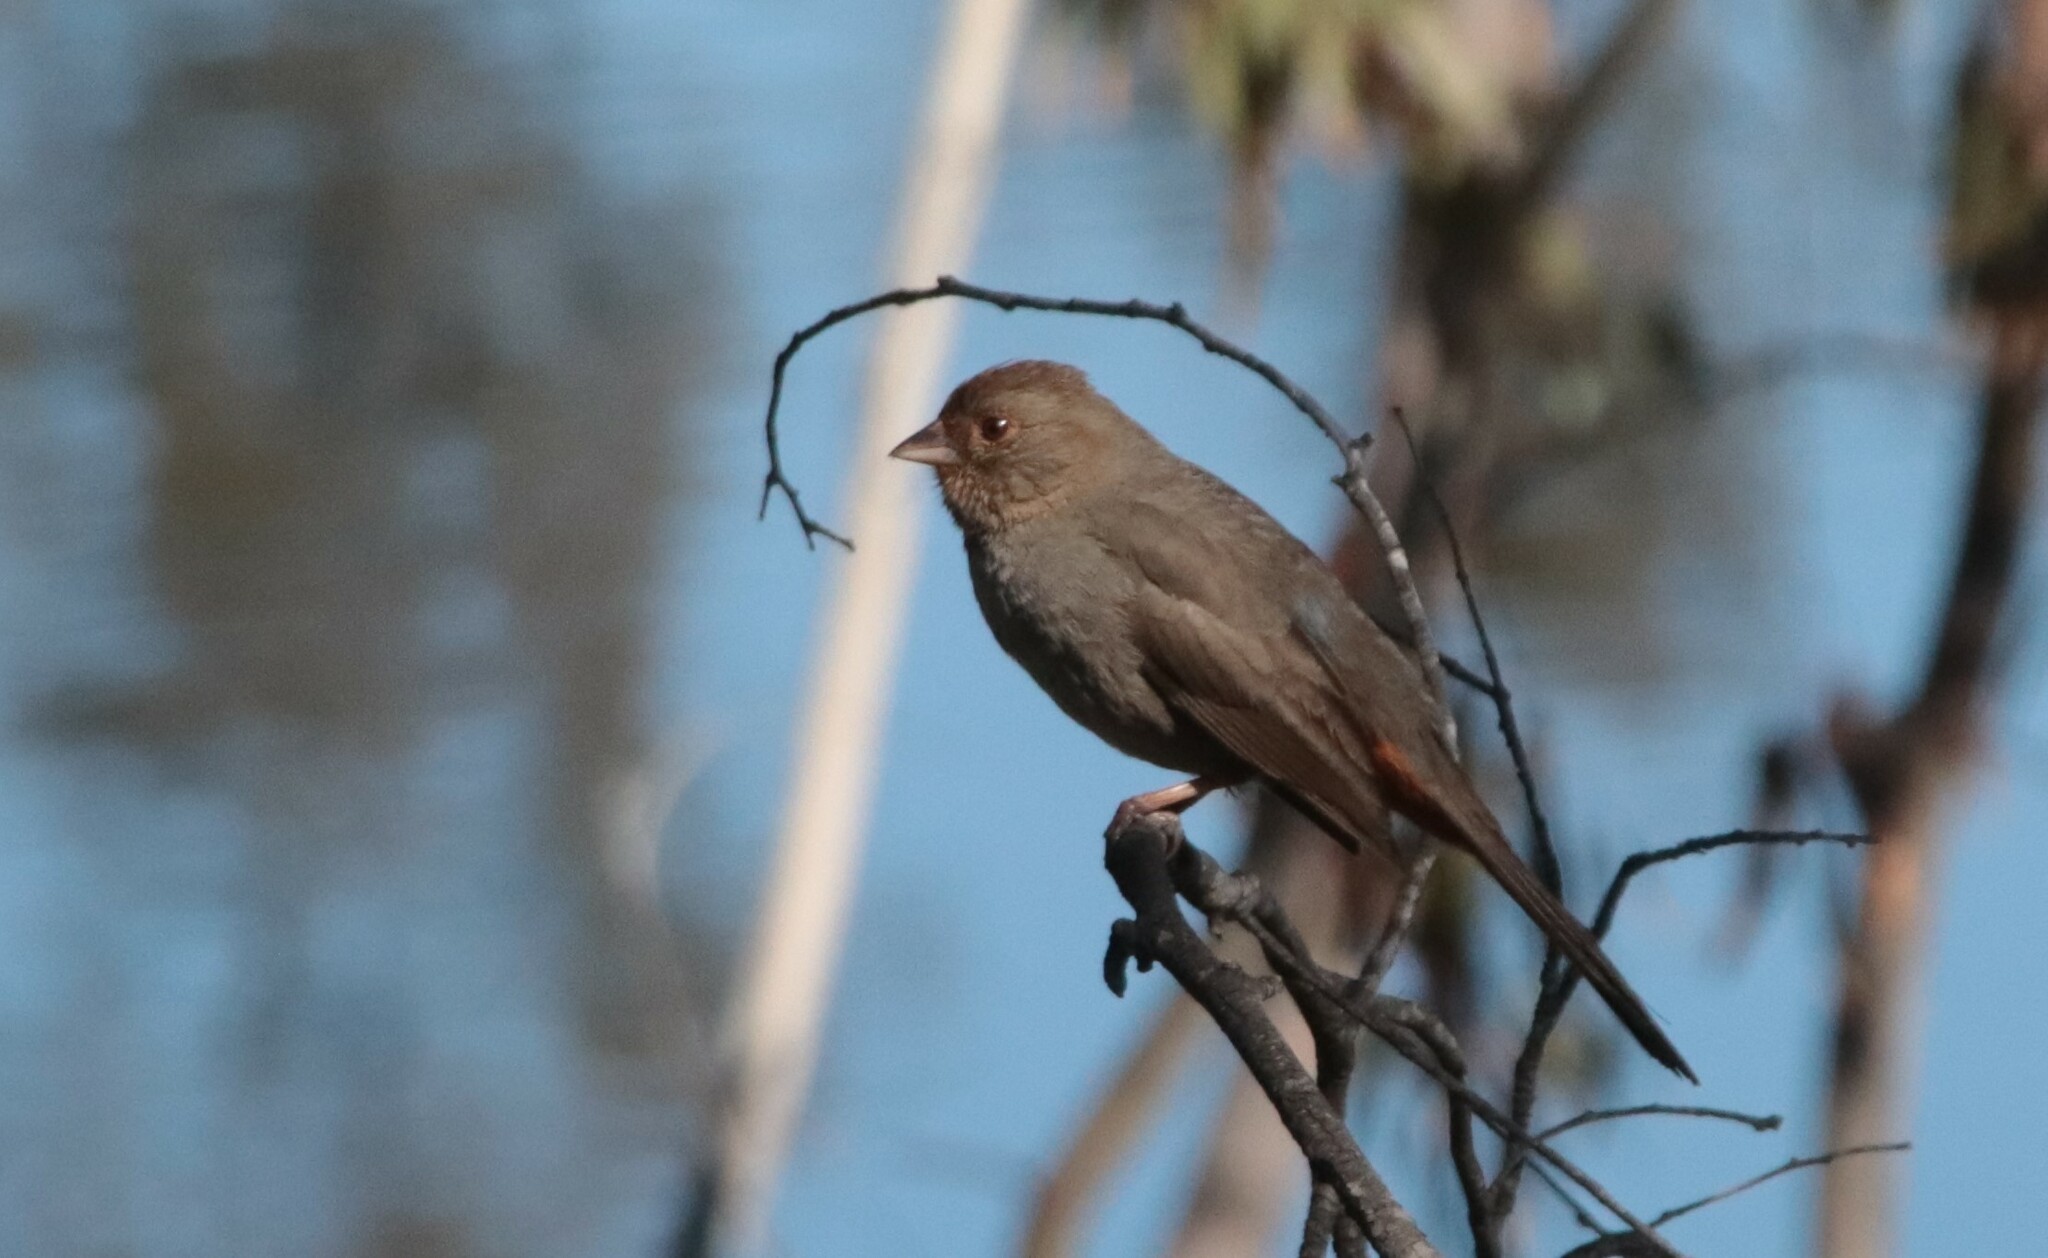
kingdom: Animalia
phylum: Chordata
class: Aves
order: Passeriformes
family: Passerellidae
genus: Melozone
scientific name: Melozone crissalis
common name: California towhee
